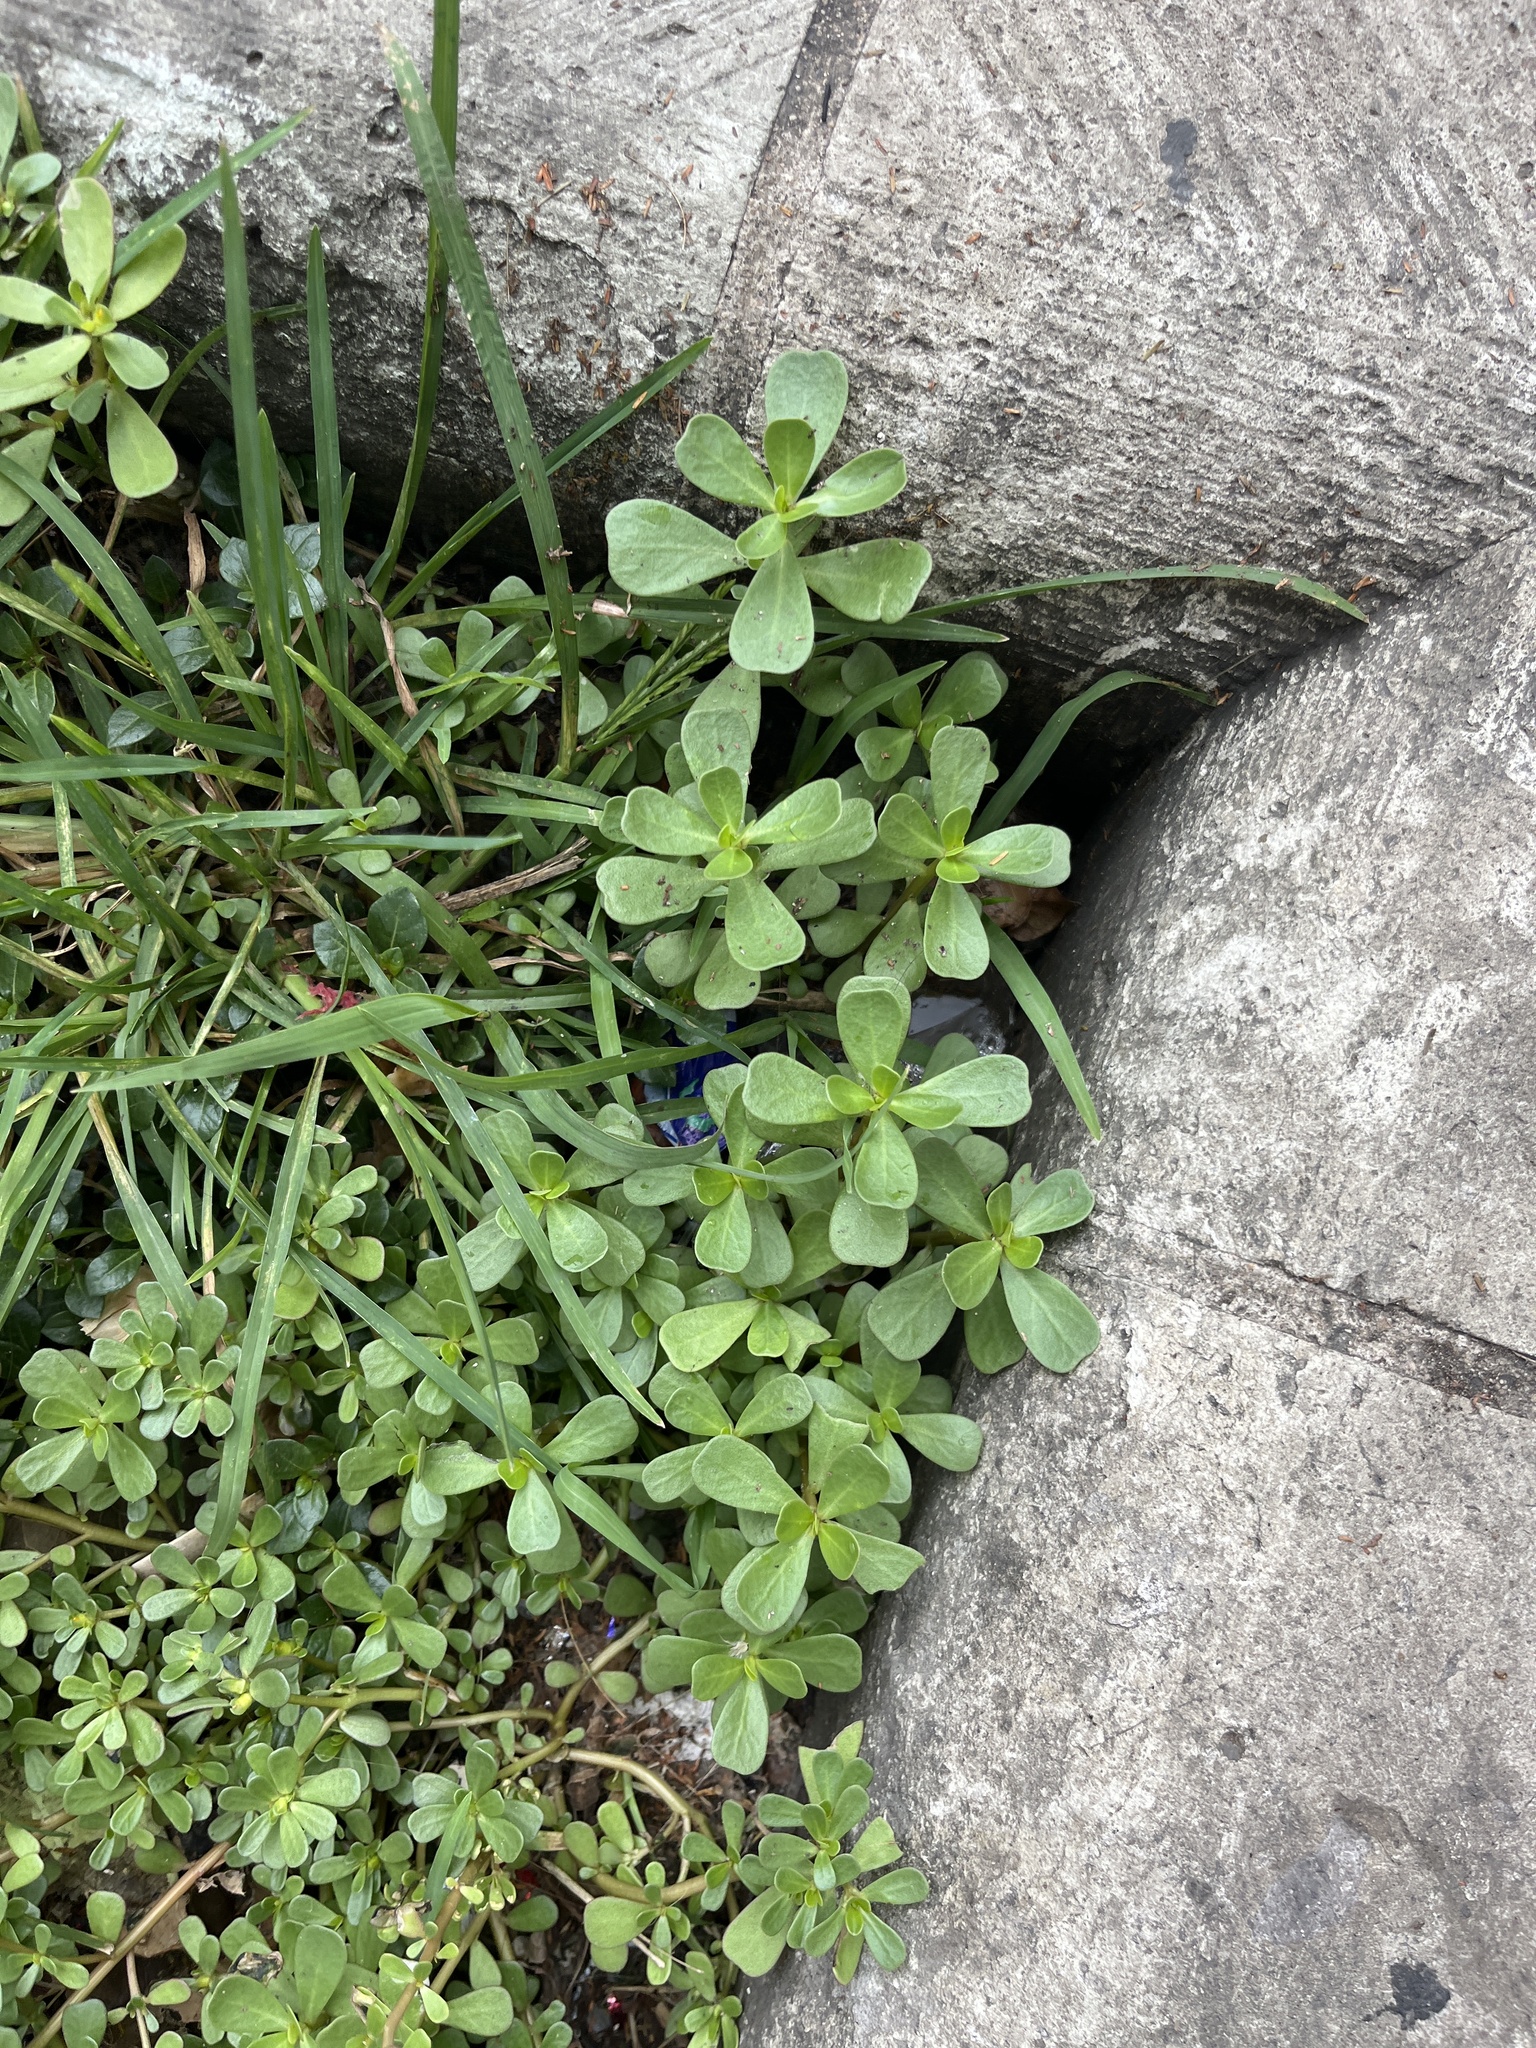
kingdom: Plantae
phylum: Tracheophyta
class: Magnoliopsida
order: Caryophyllales
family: Portulacaceae
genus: Portulaca
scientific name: Portulaca oleracea
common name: Common purslane
